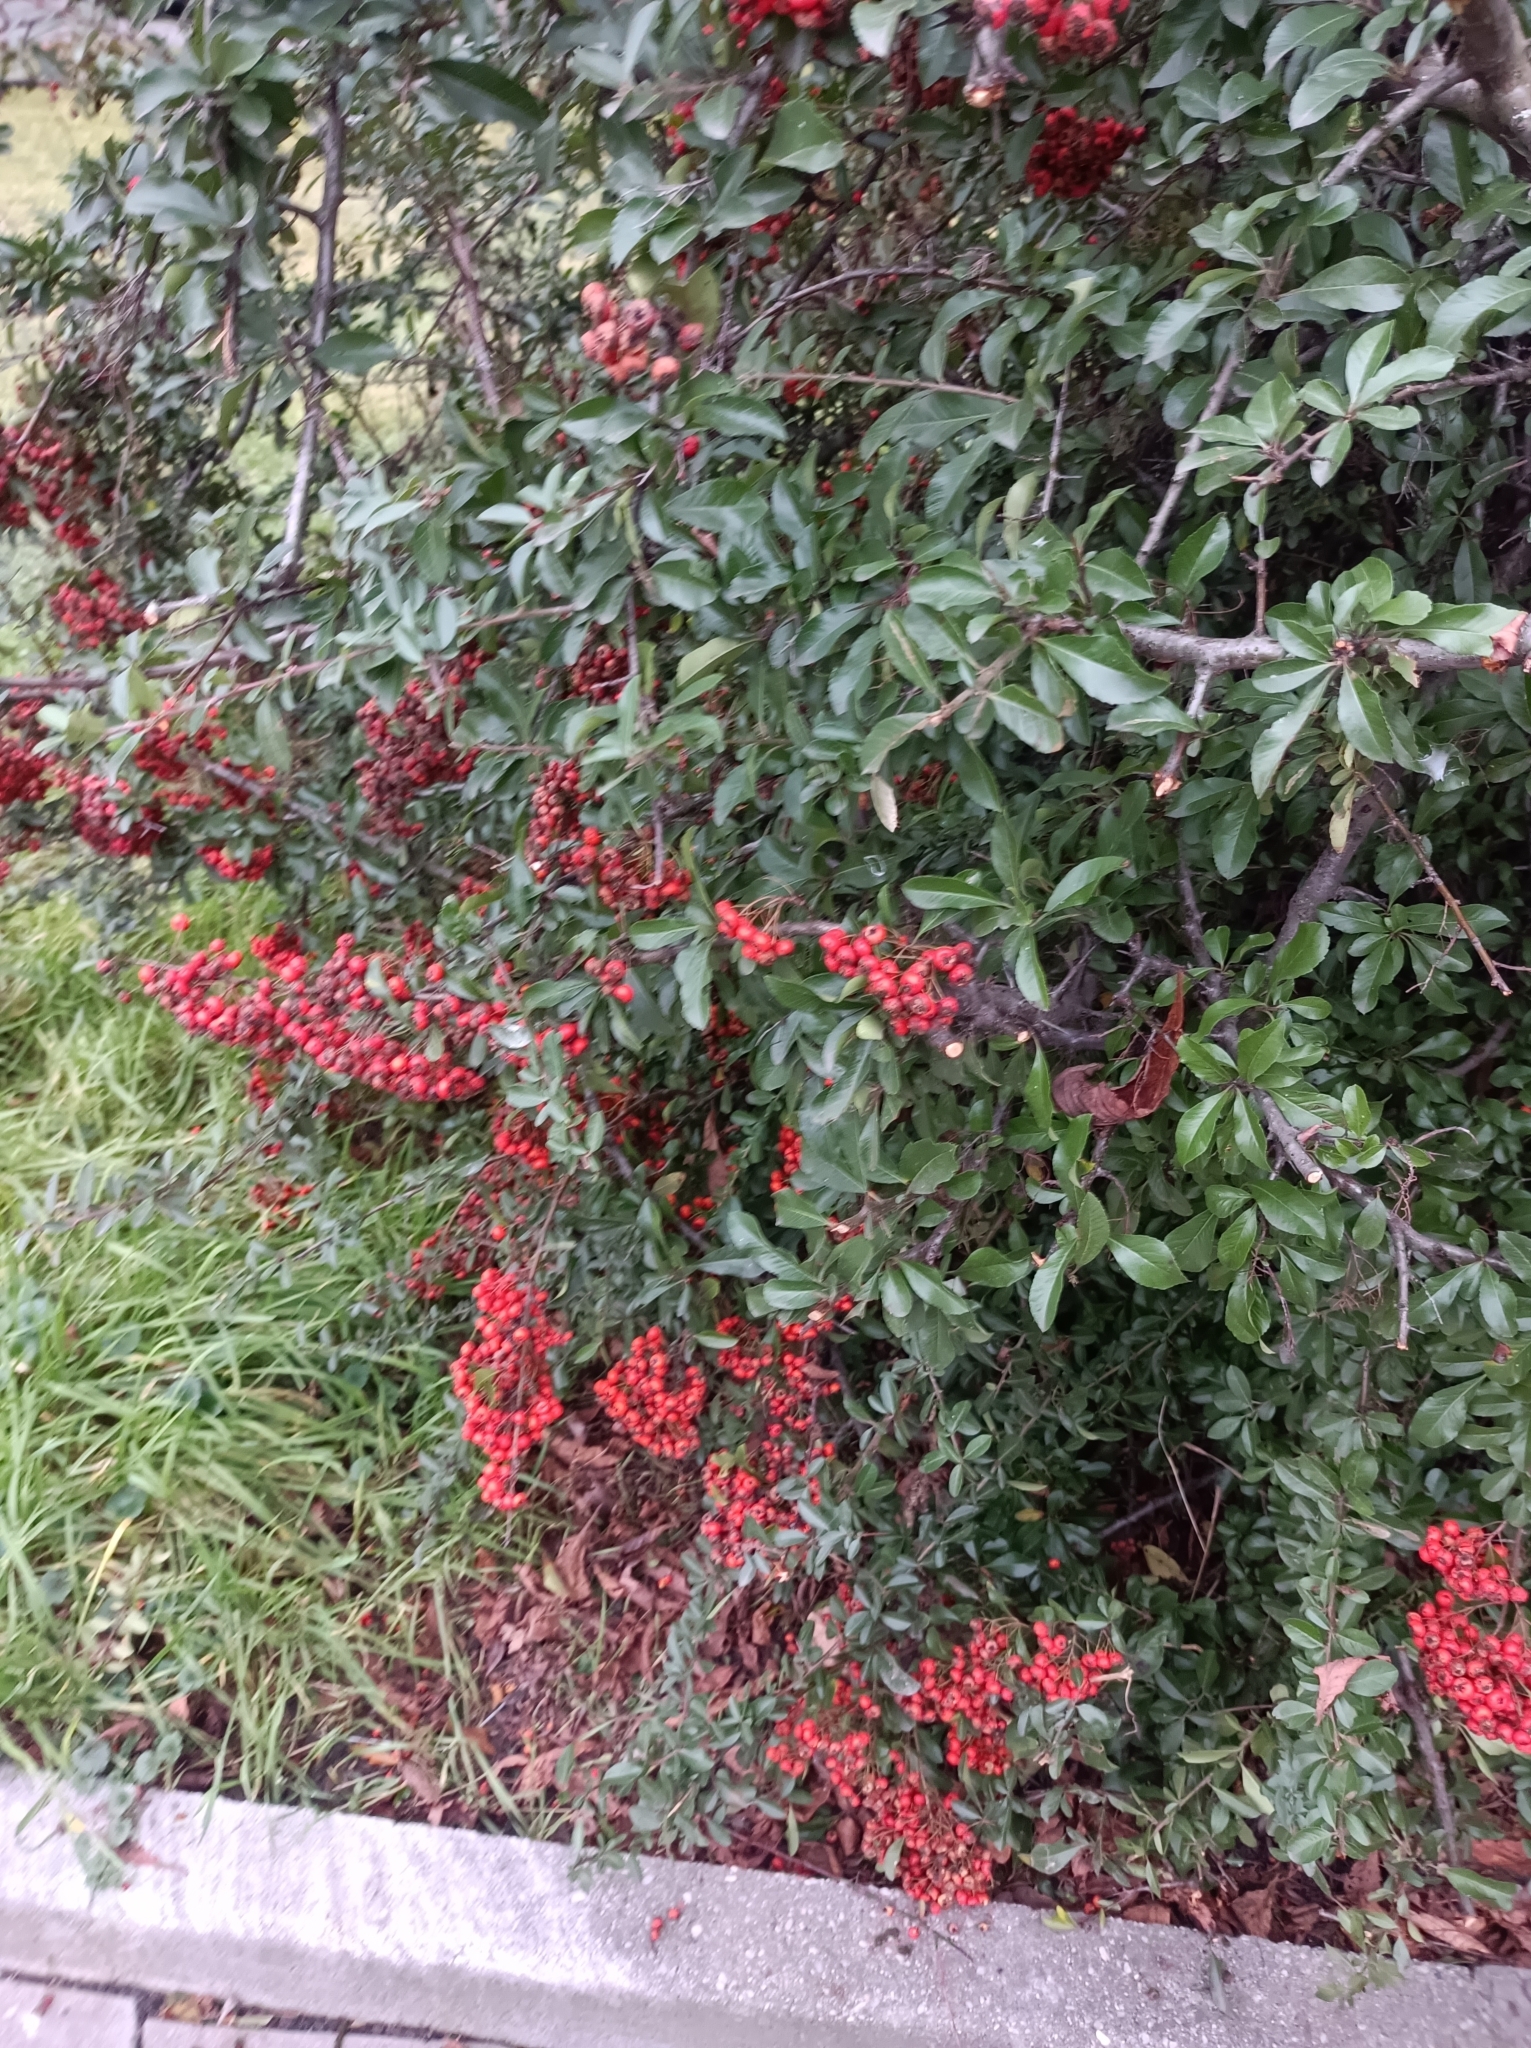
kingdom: Plantae
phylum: Tracheophyta
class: Magnoliopsida
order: Rosales
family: Rosaceae
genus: Pyracantha
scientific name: Pyracantha coccinea
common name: Firethorn
